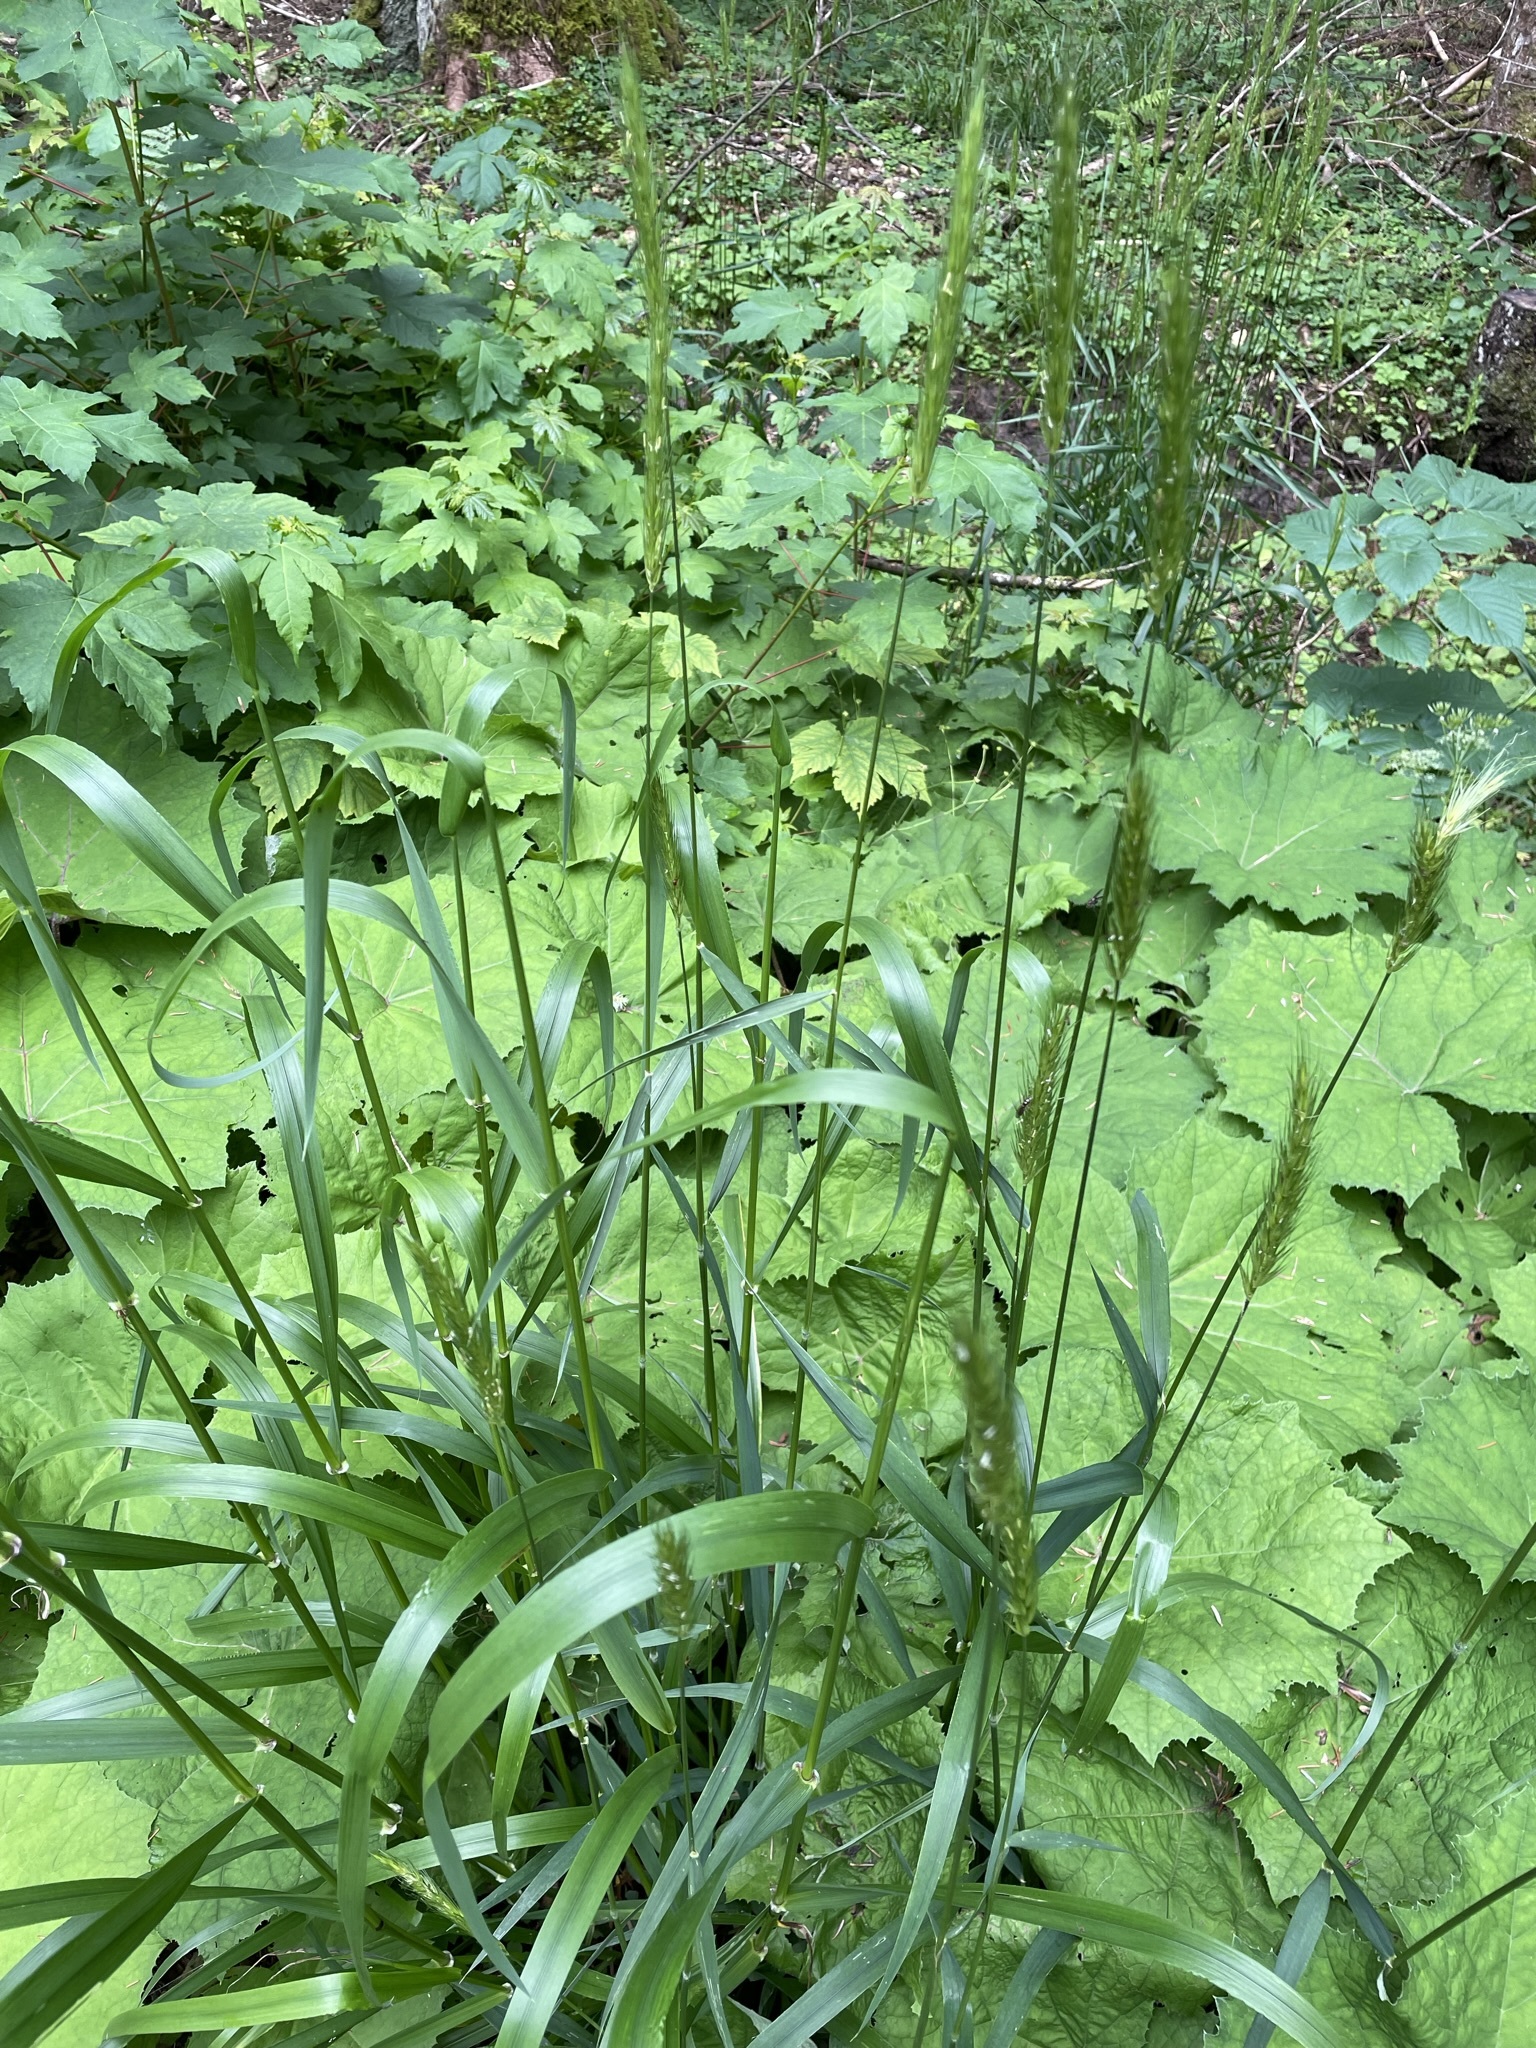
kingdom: Plantae
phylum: Tracheophyta
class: Liliopsida
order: Poales
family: Poaceae
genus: Hordelymus
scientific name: Hordelymus europaeus
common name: Wood-barley
